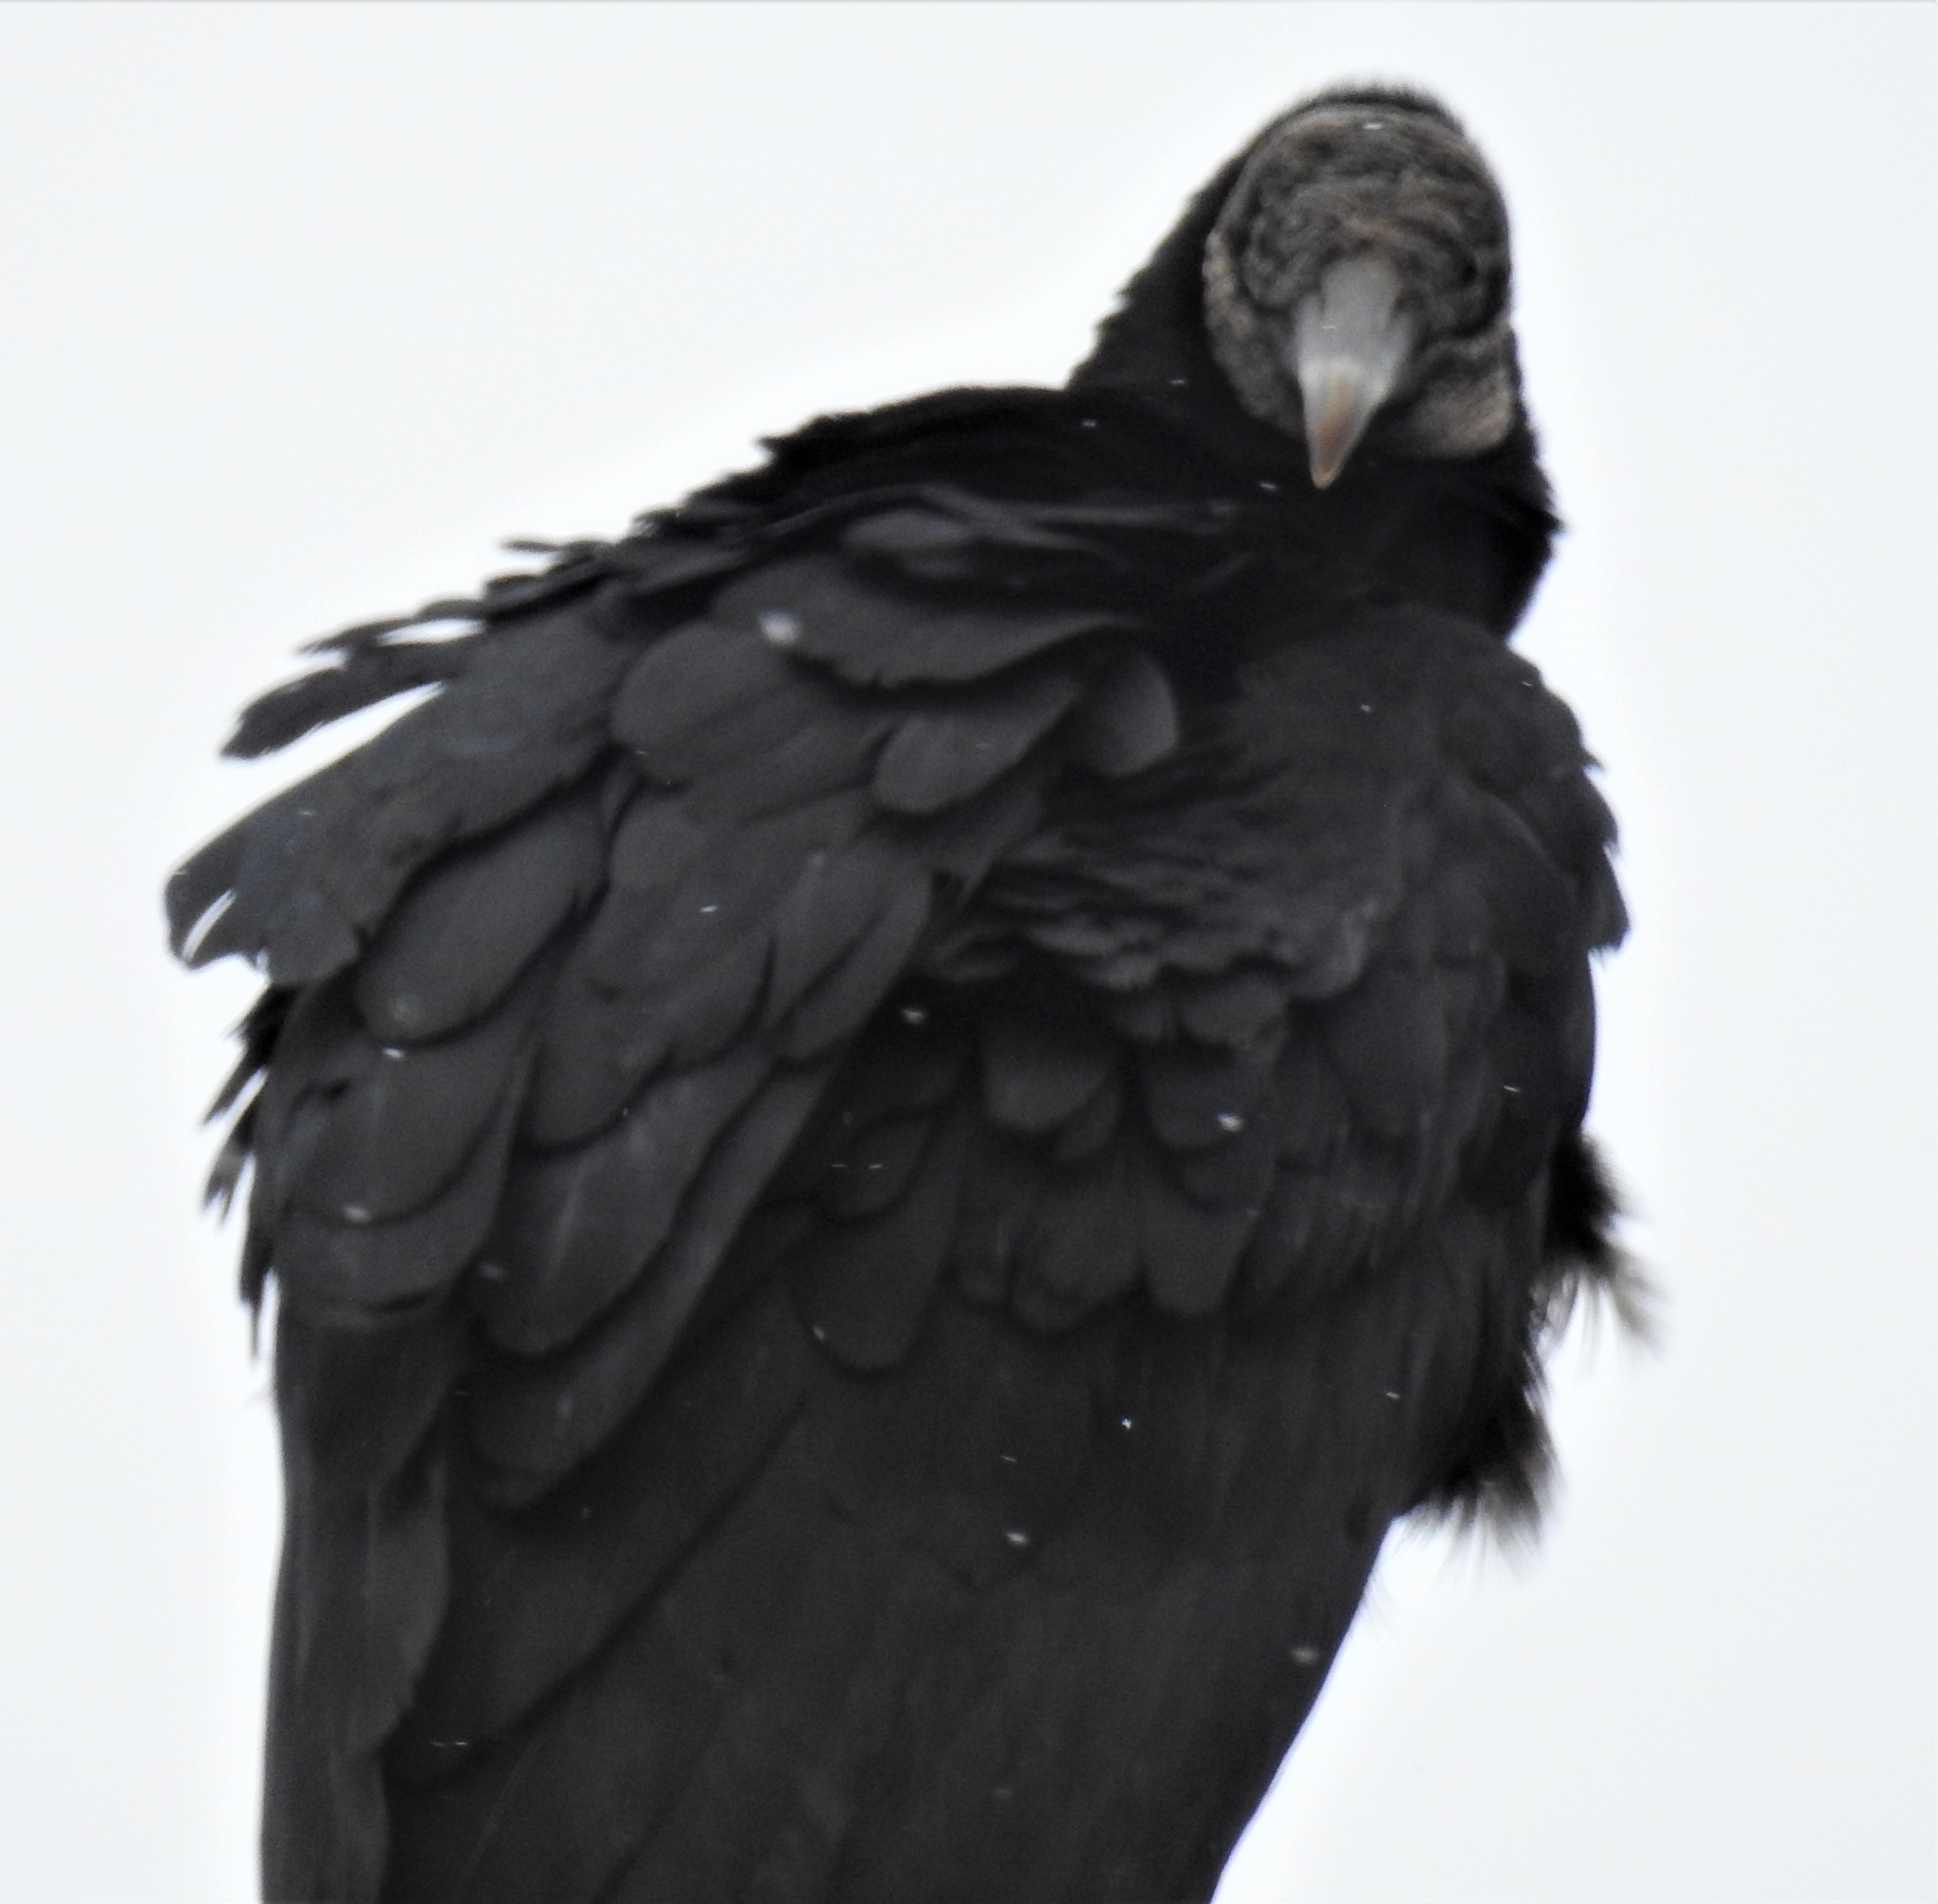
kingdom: Animalia
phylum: Chordata
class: Aves
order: Accipitriformes
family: Cathartidae
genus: Coragyps
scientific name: Coragyps atratus
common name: Black vulture
